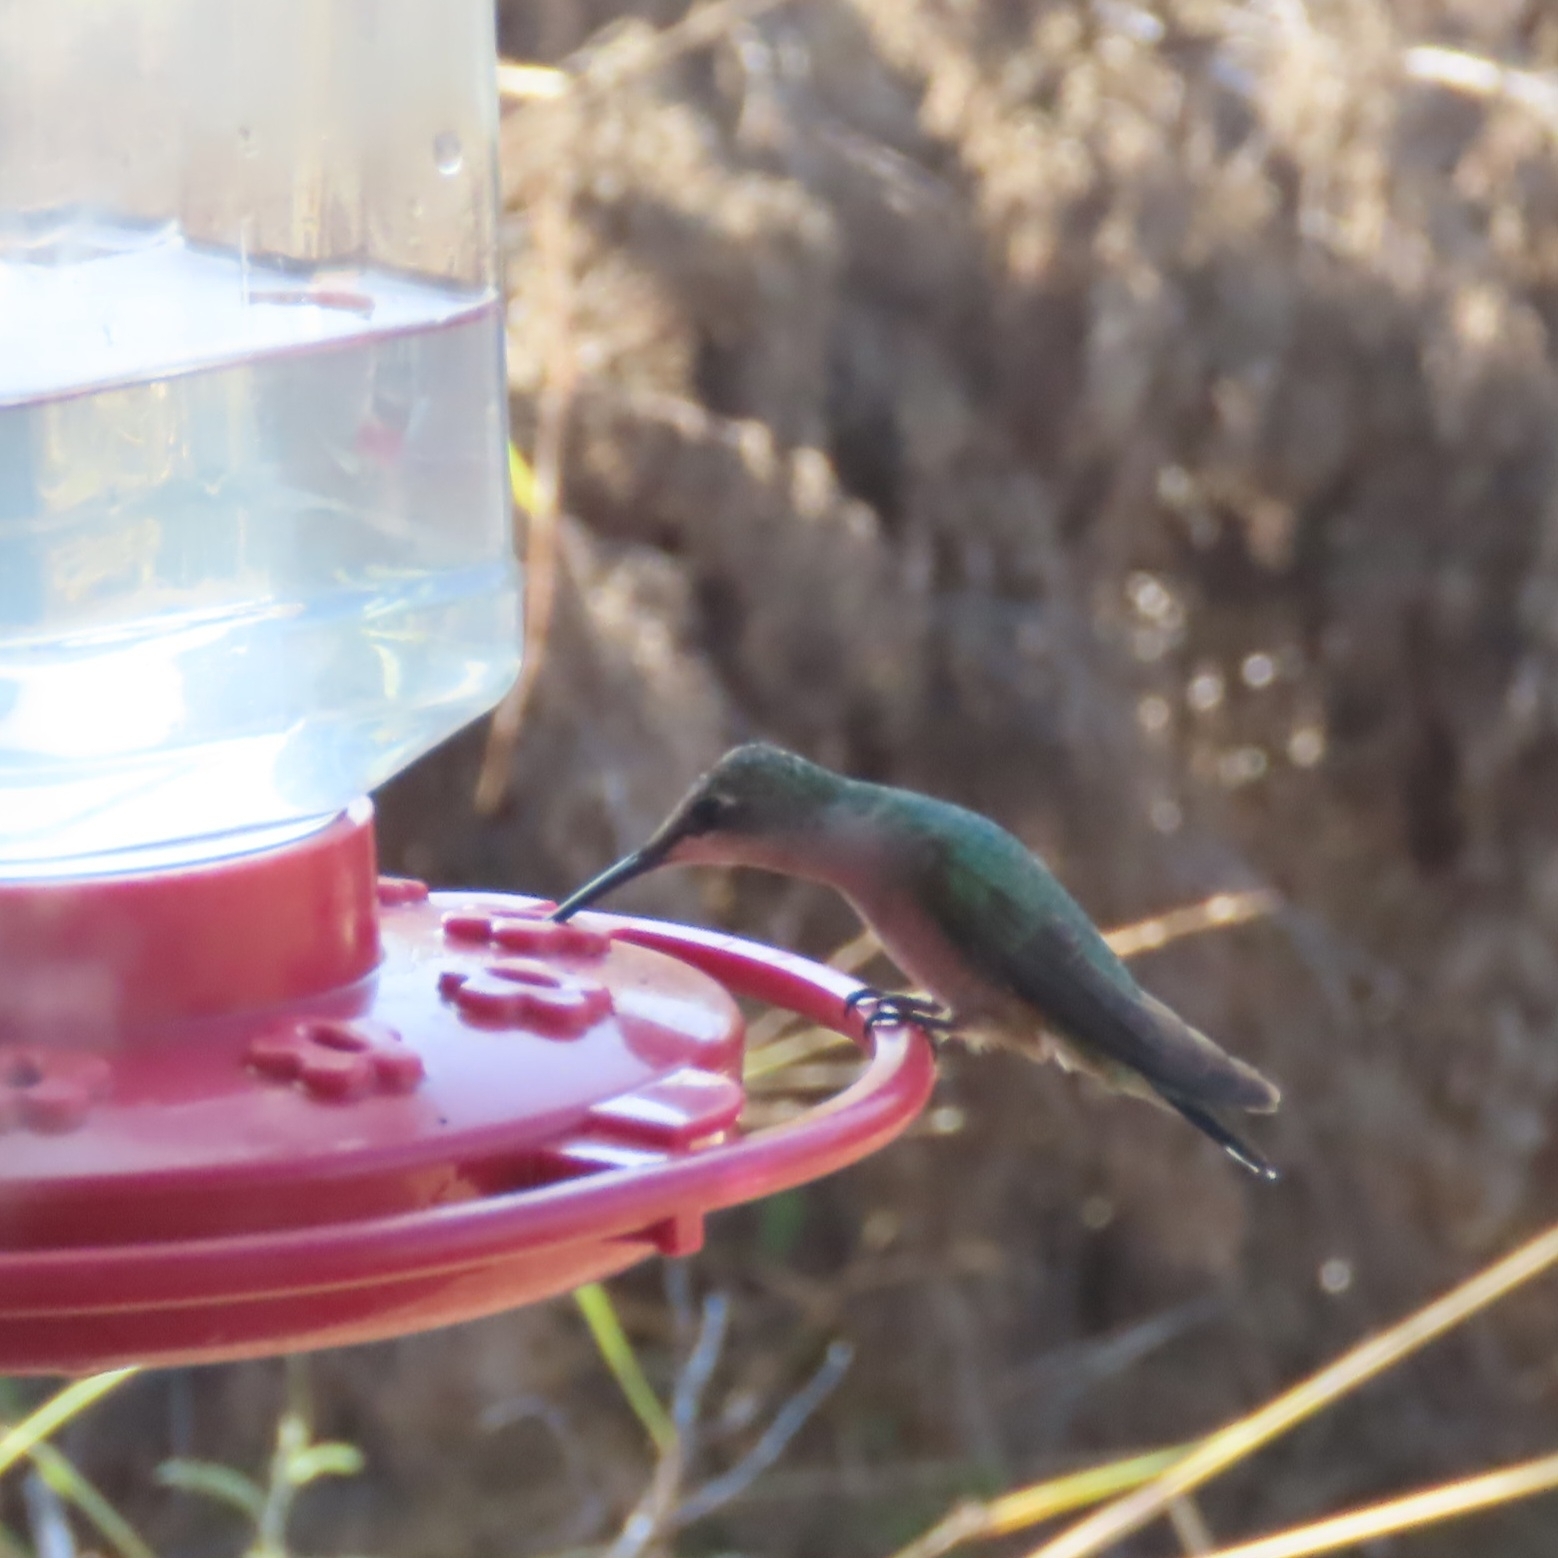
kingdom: Animalia
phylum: Chordata
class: Aves
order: Apodiformes
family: Trochilidae
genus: Archilochus
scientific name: Archilochus alexandri
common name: Black-chinned hummingbird
